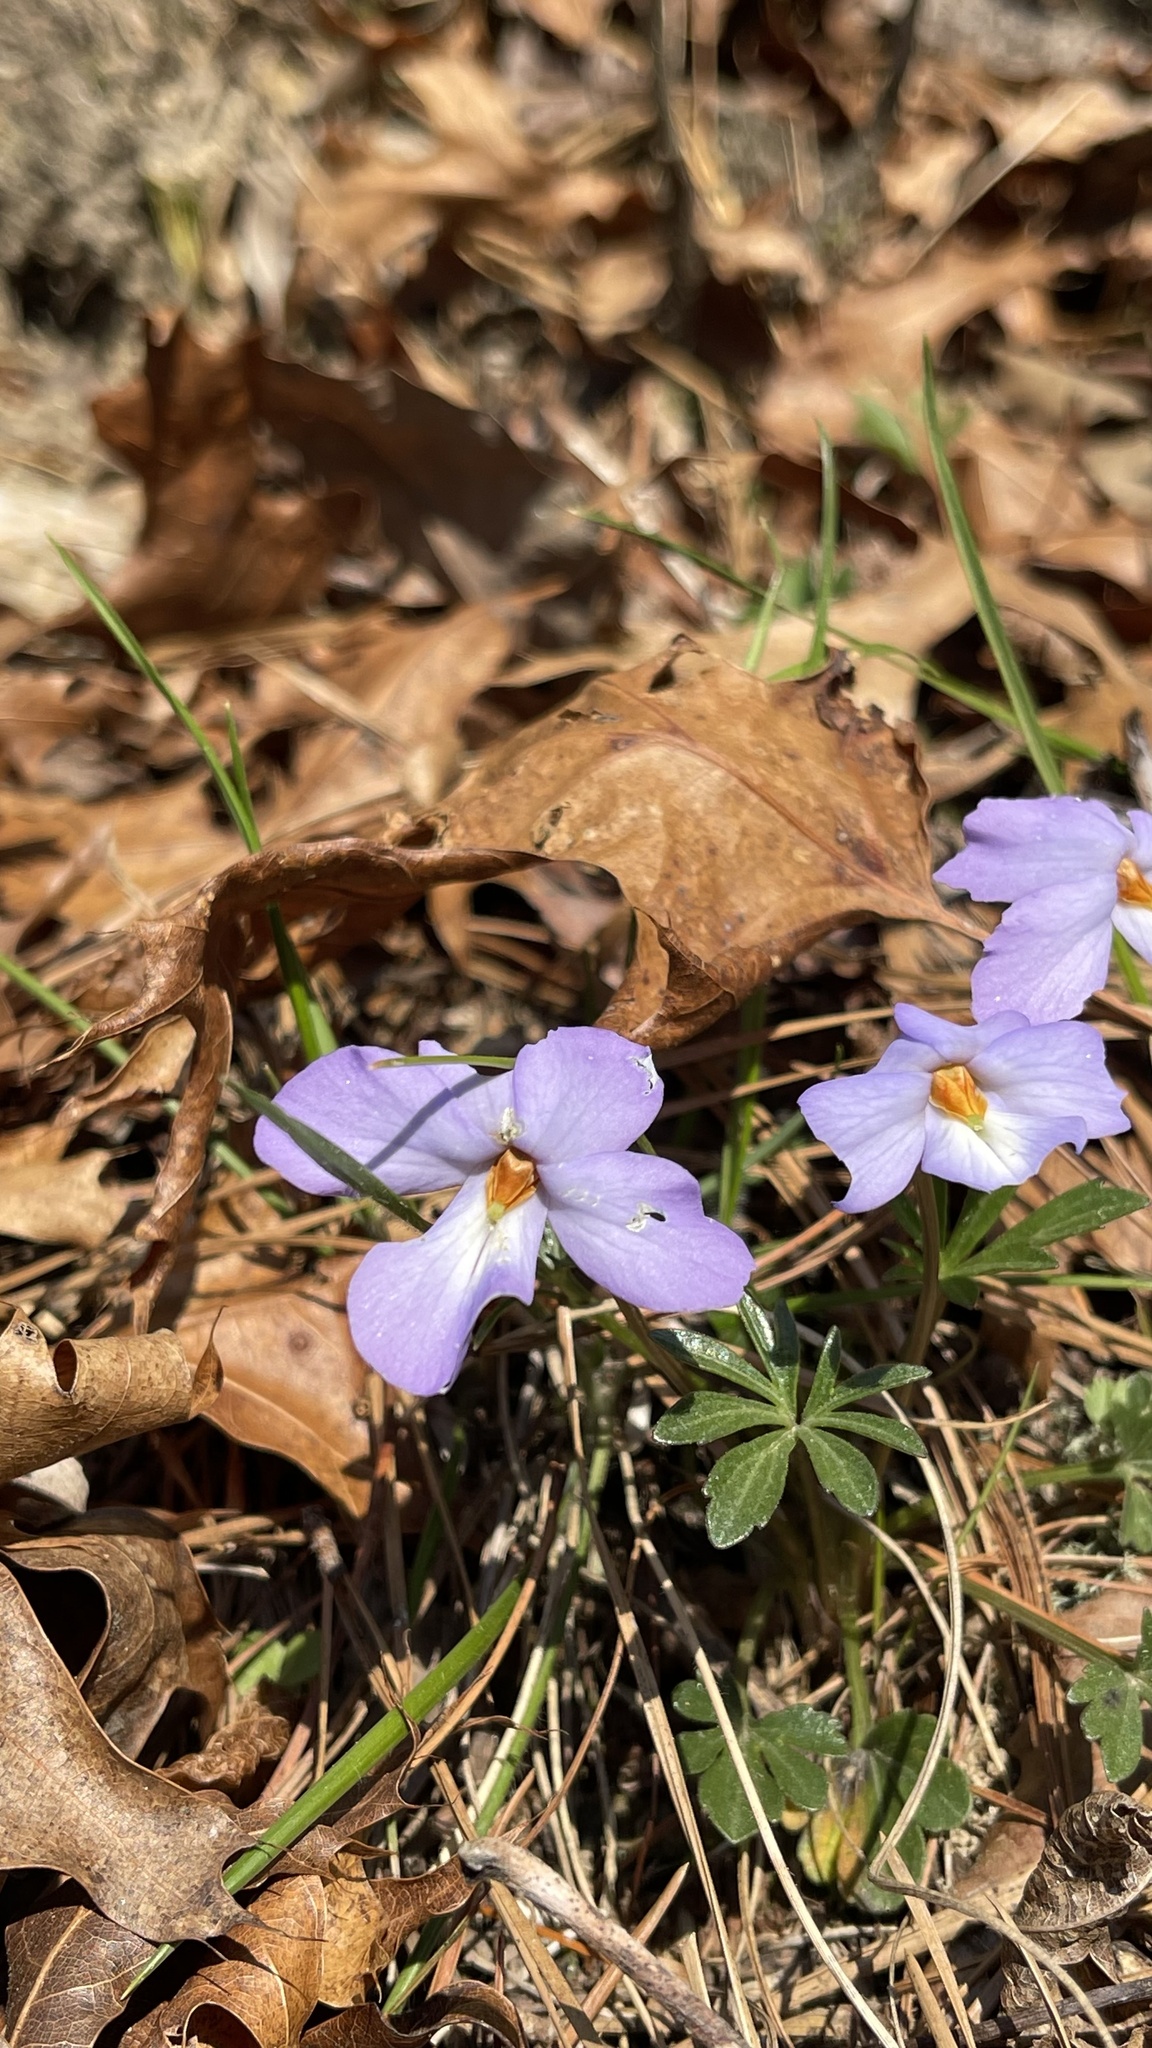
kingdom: Plantae
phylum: Tracheophyta
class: Magnoliopsida
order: Malpighiales
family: Violaceae
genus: Viola
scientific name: Viola pedata
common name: Pansy violet
